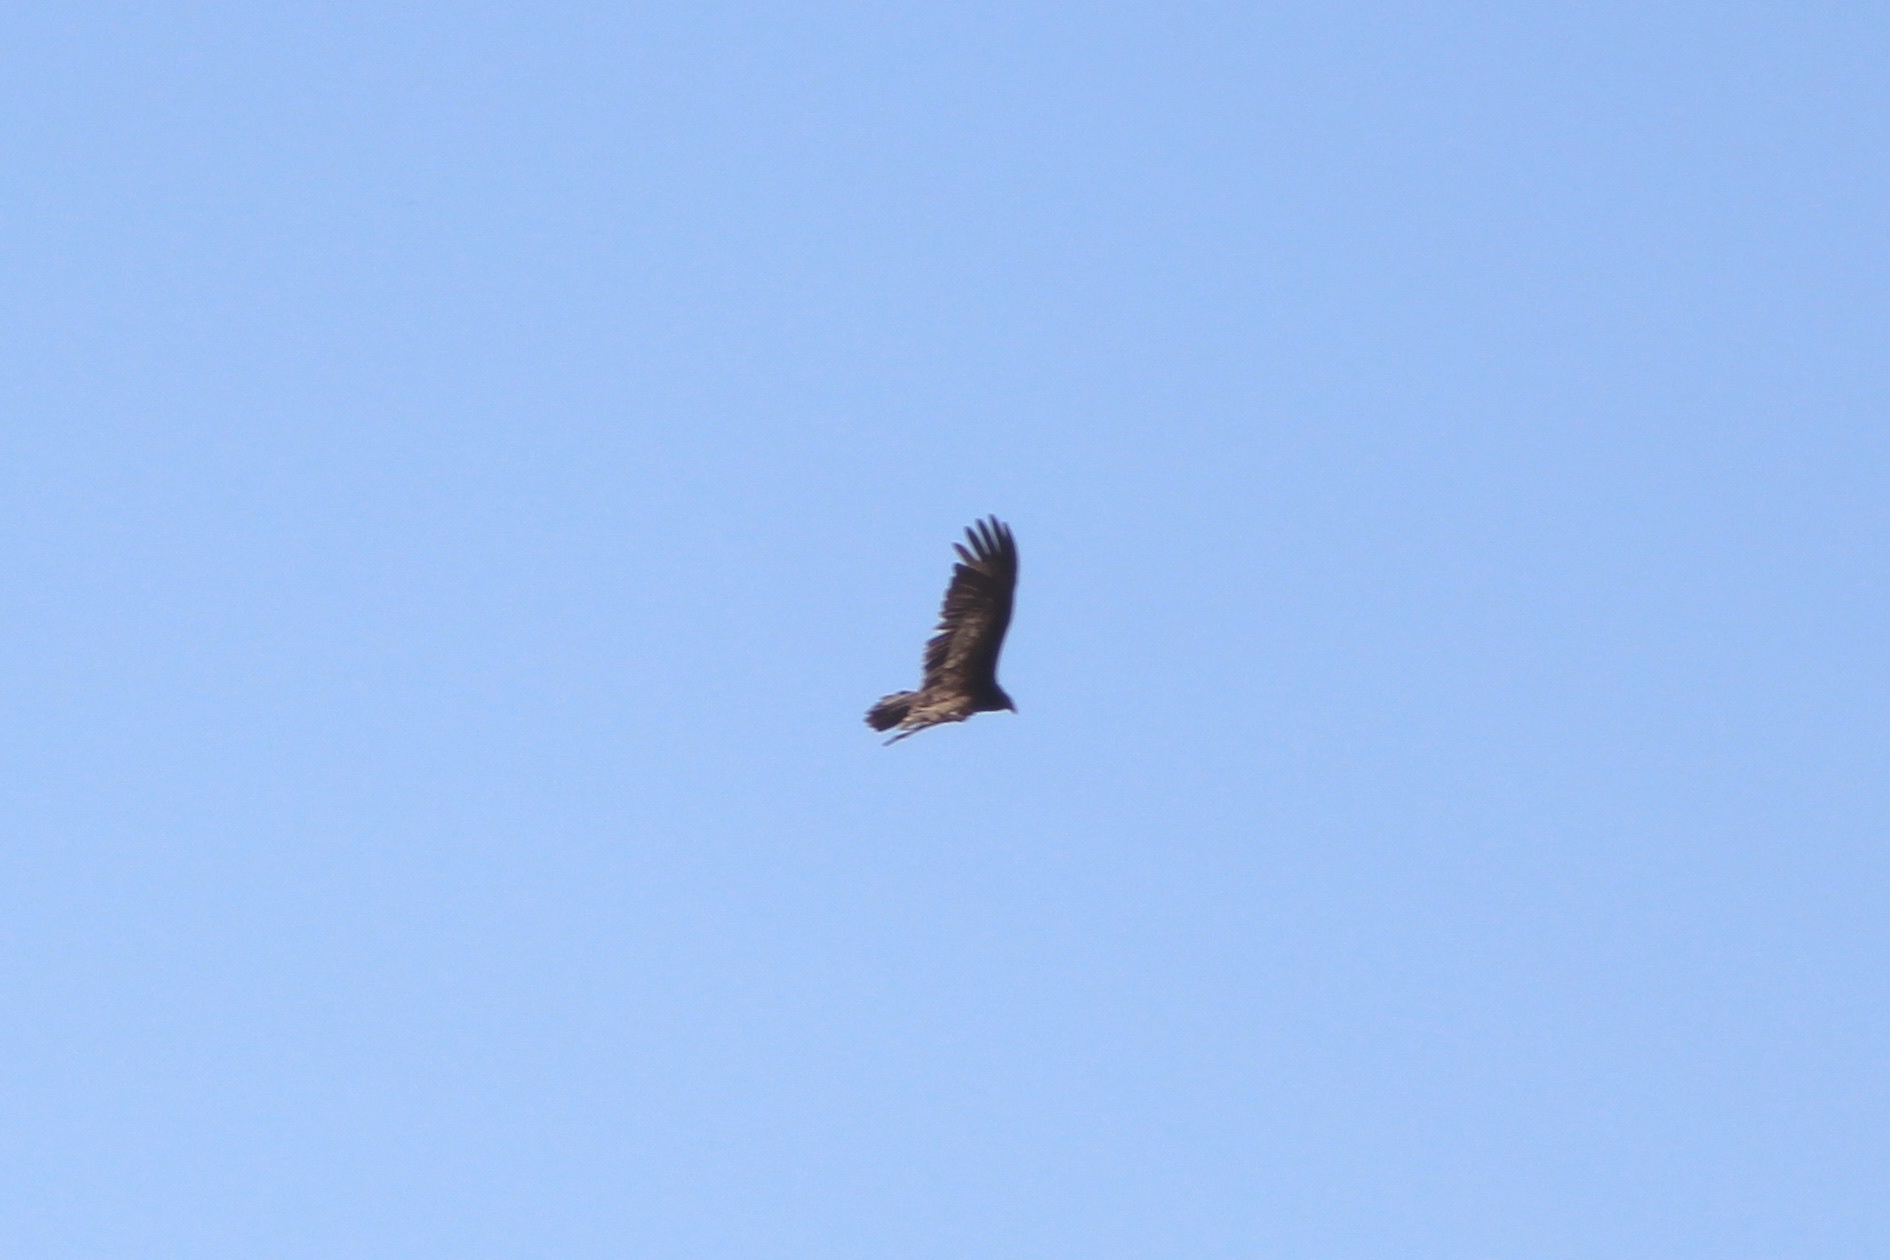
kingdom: Animalia
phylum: Chordata
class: Aves
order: Accipitriformes
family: Cathartidae
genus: Cathartes
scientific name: Cathartes aura
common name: Turkey vulture
